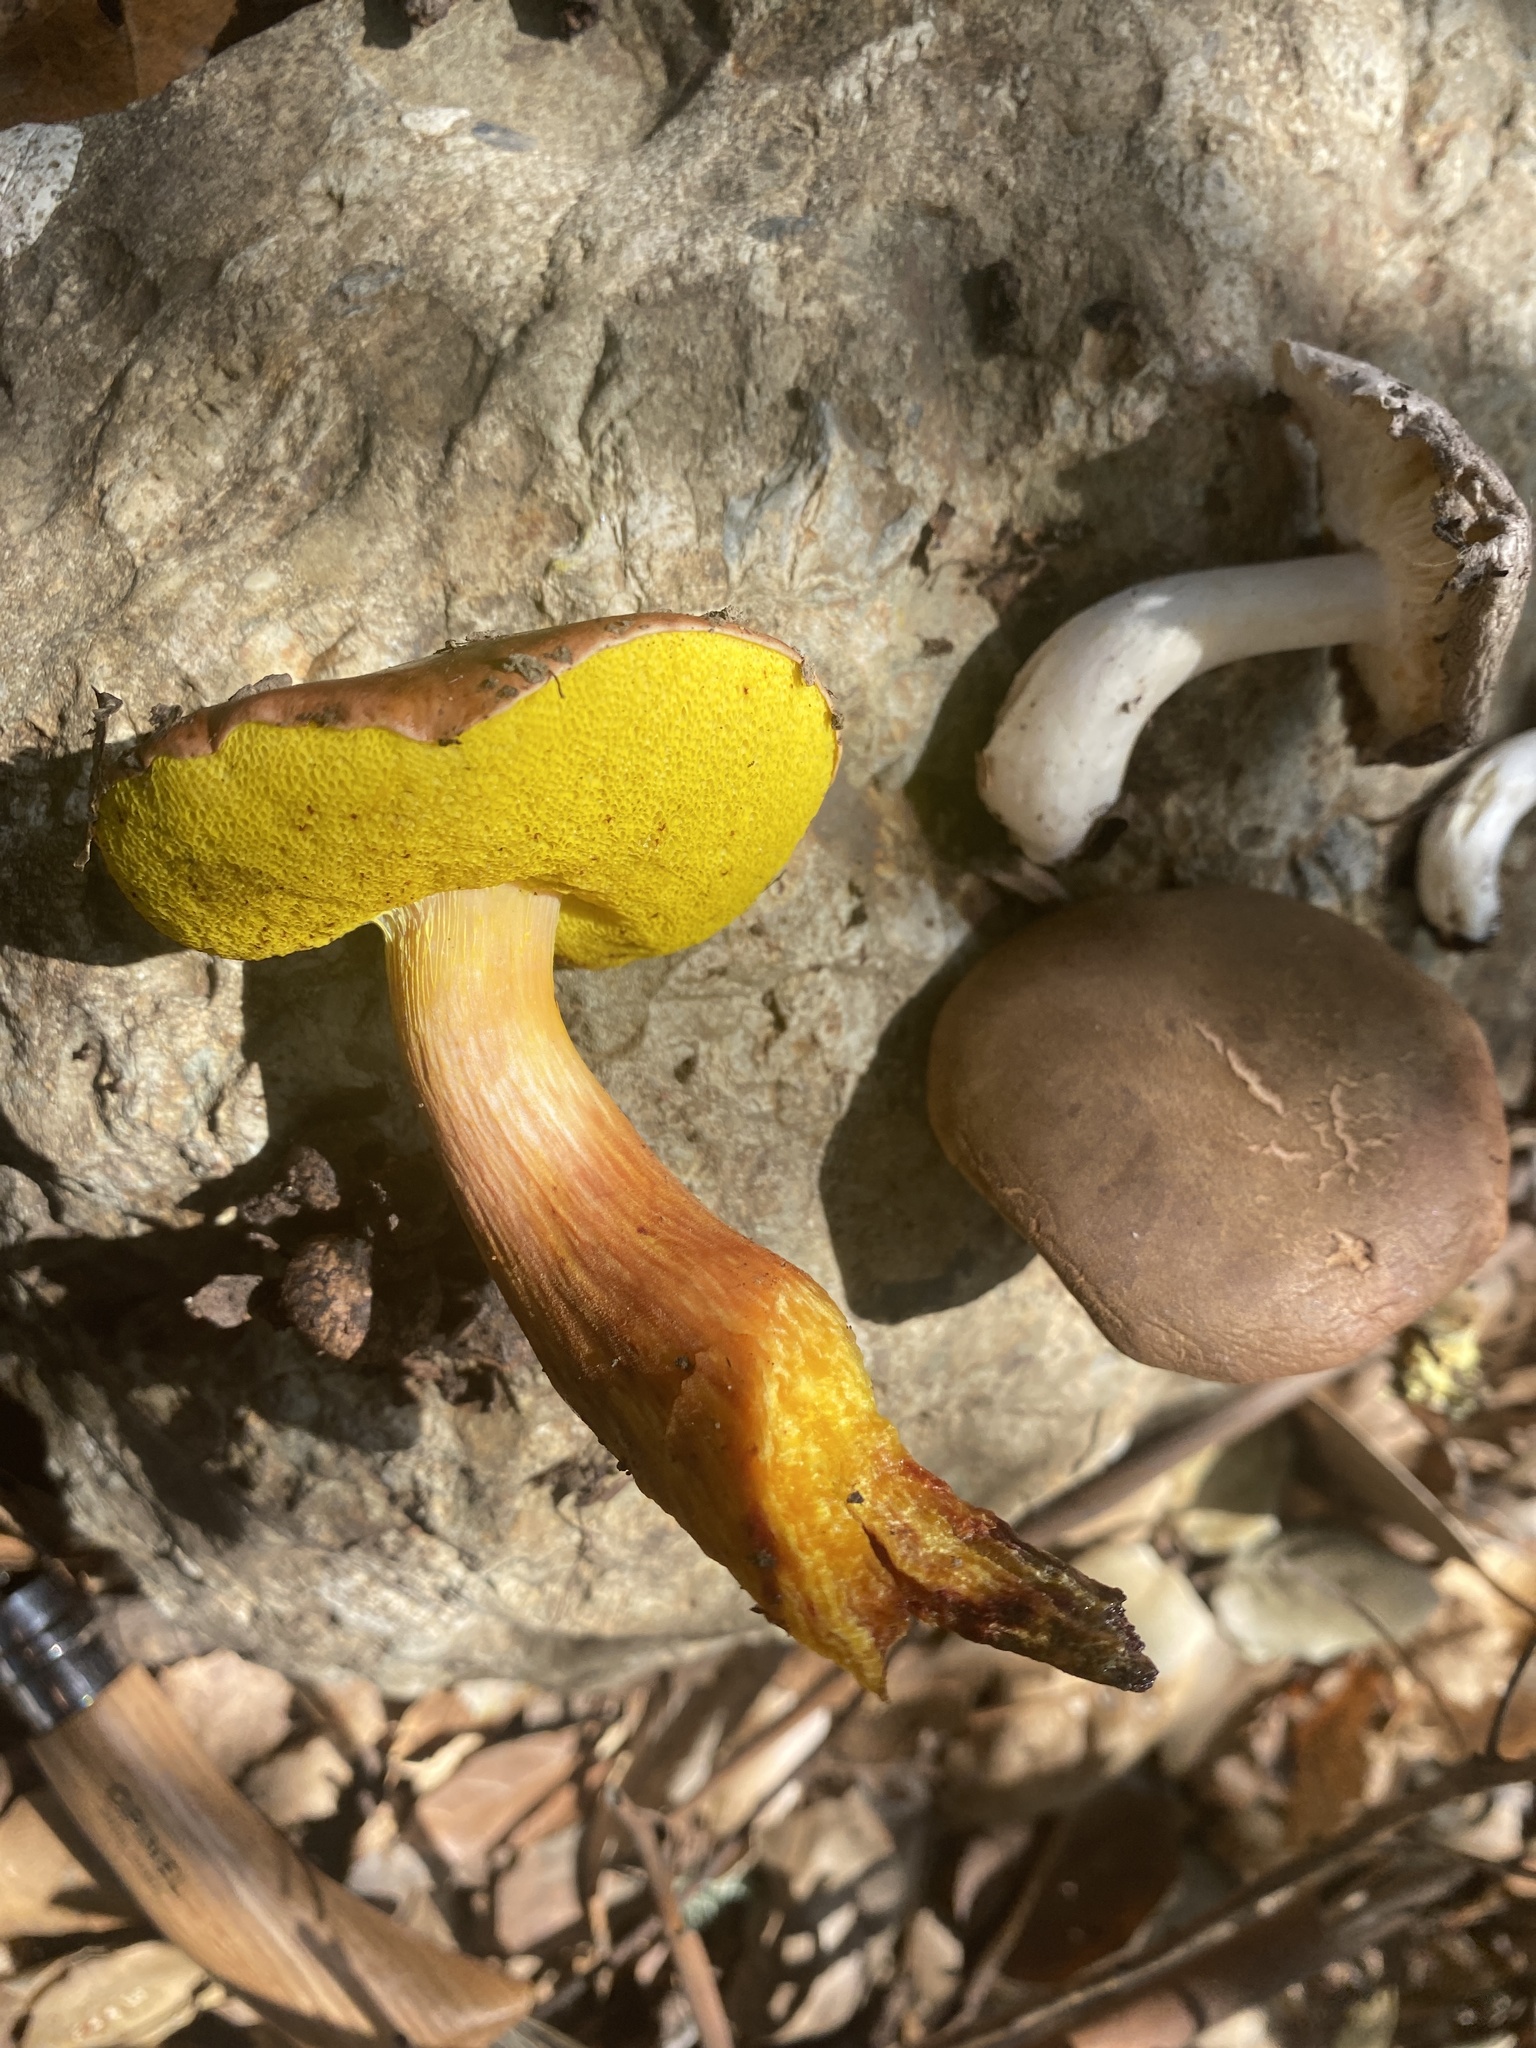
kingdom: Fungi
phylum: Basidiomycota
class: Agaricomycetes
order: Boletales
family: Boletaceae
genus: Aureoboletus
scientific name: Aureoboletus flaviporus
